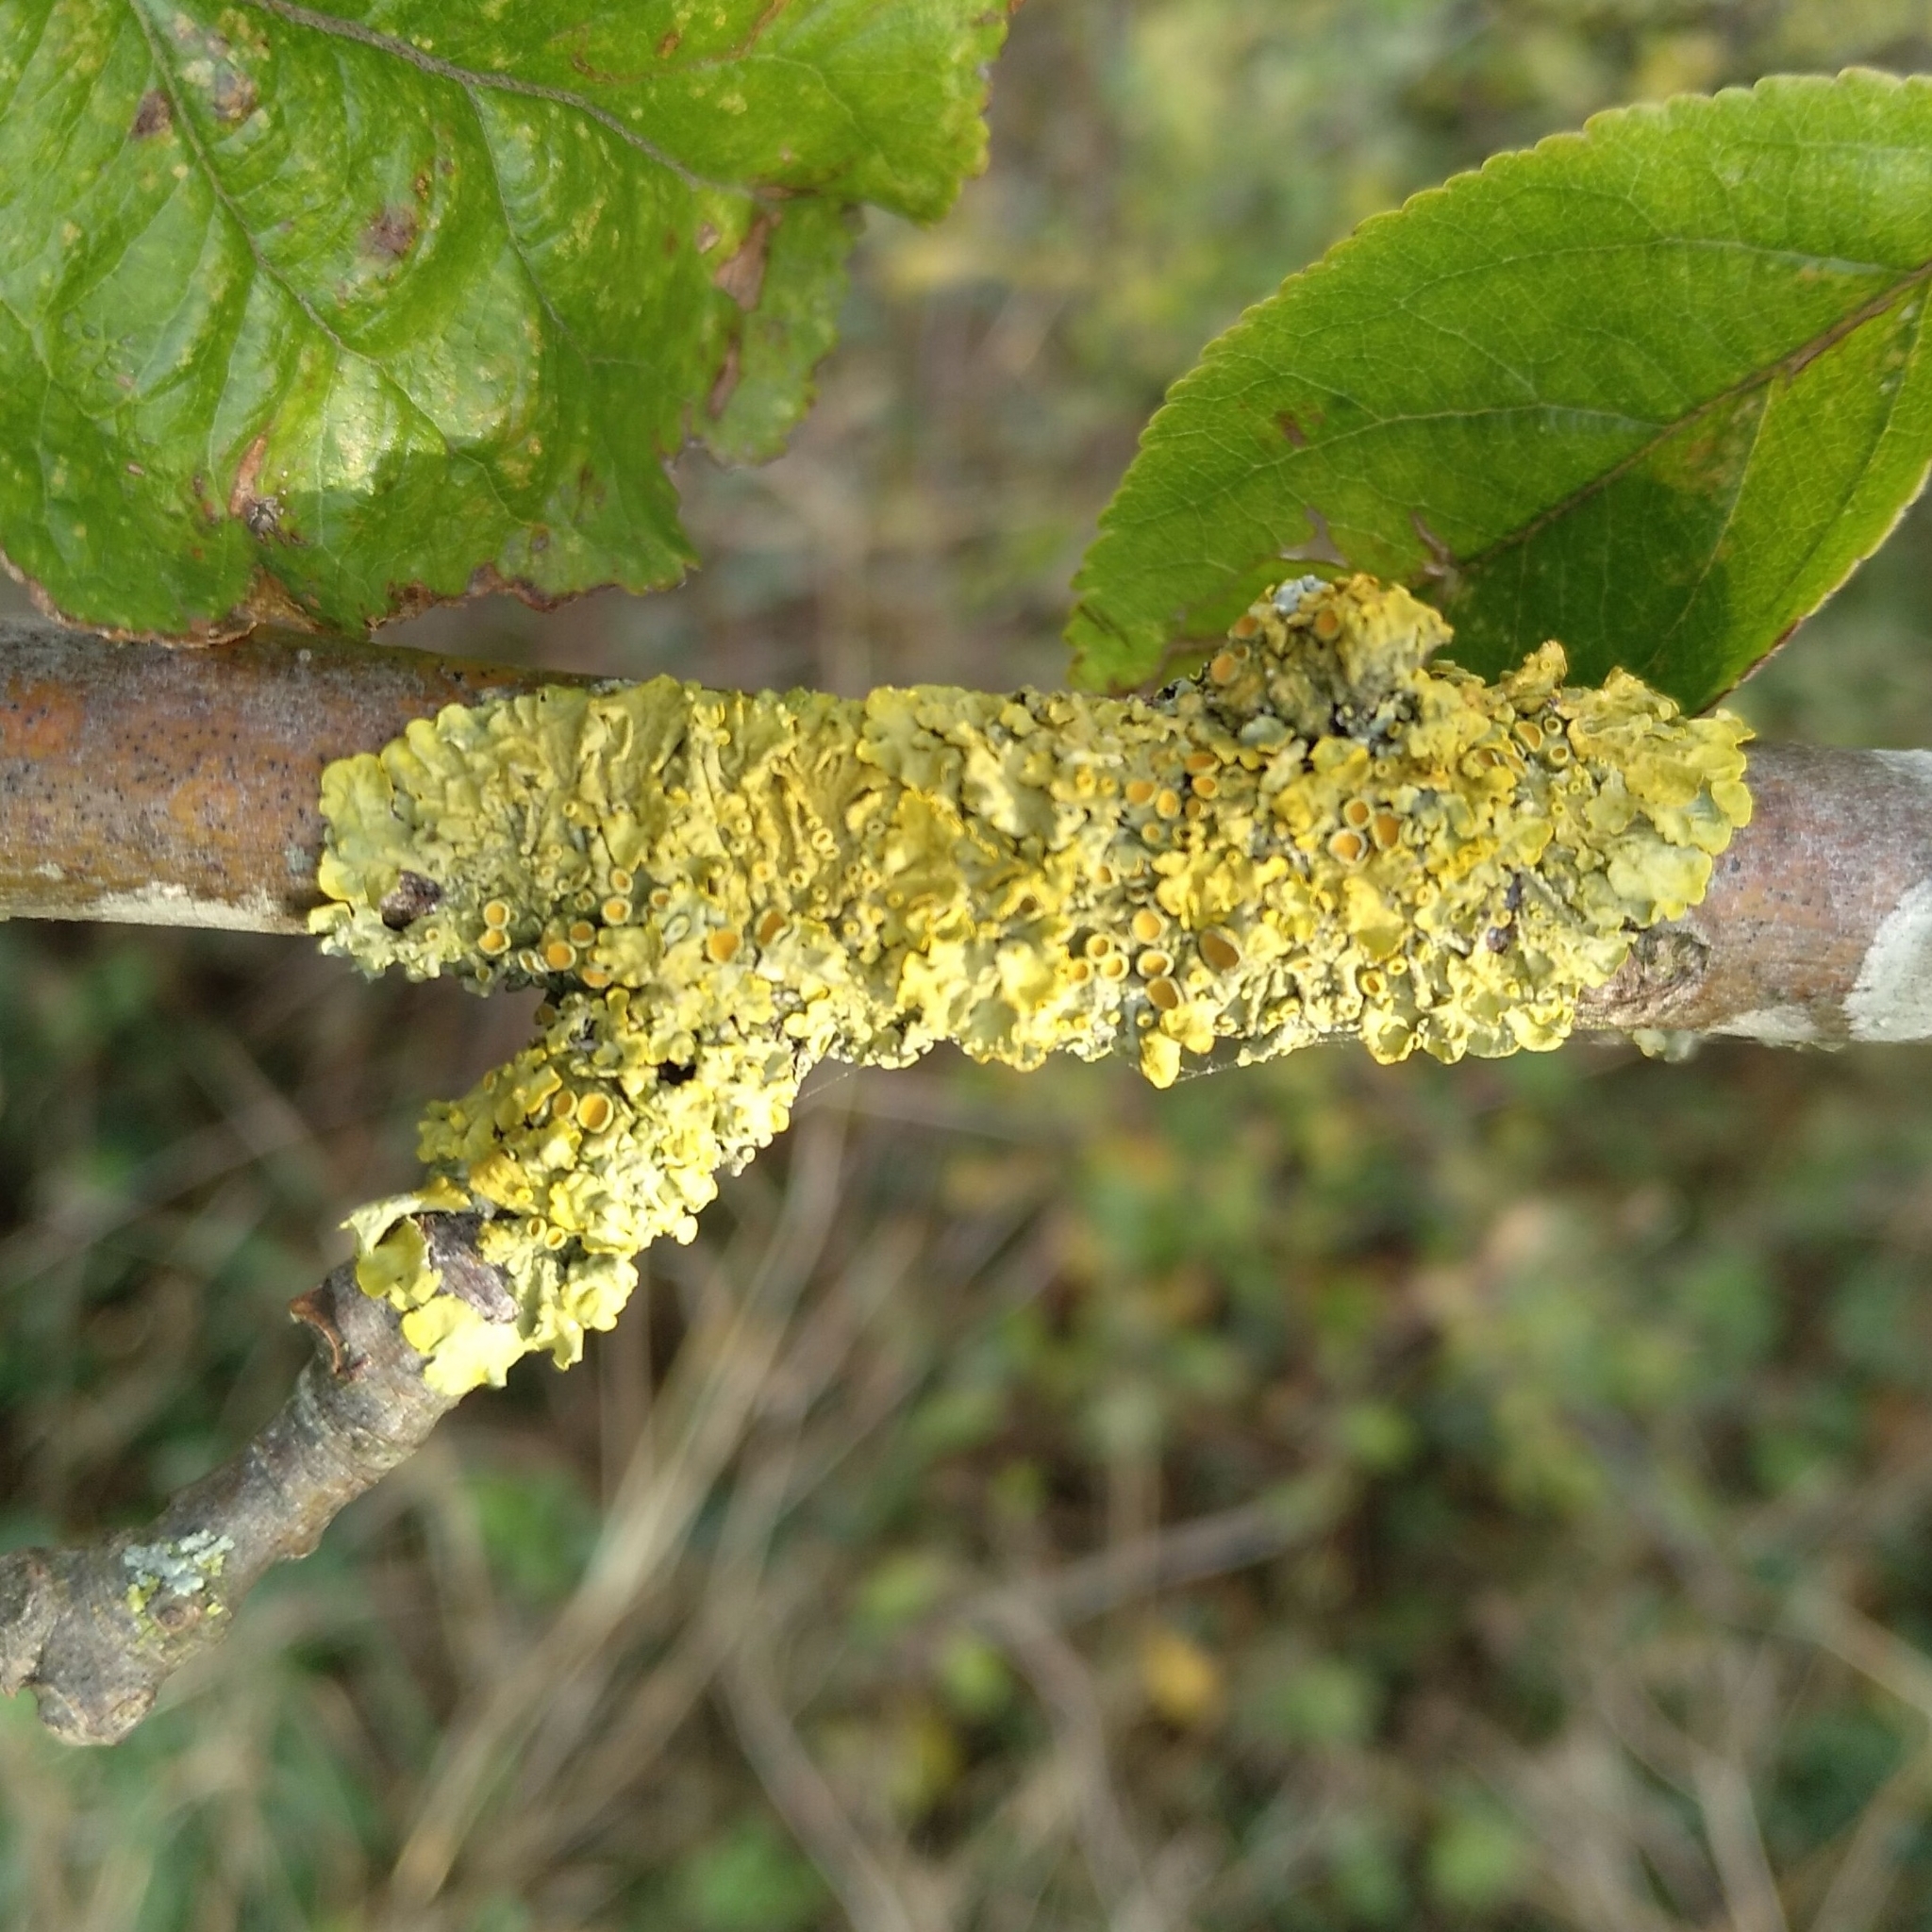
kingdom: Fungi
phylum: Ascomycota
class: Lecanoromycetes
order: Teloschistales
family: Teloschistaceae
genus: Xanthoria
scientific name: Xanthoria parietina
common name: Common orange lichen
